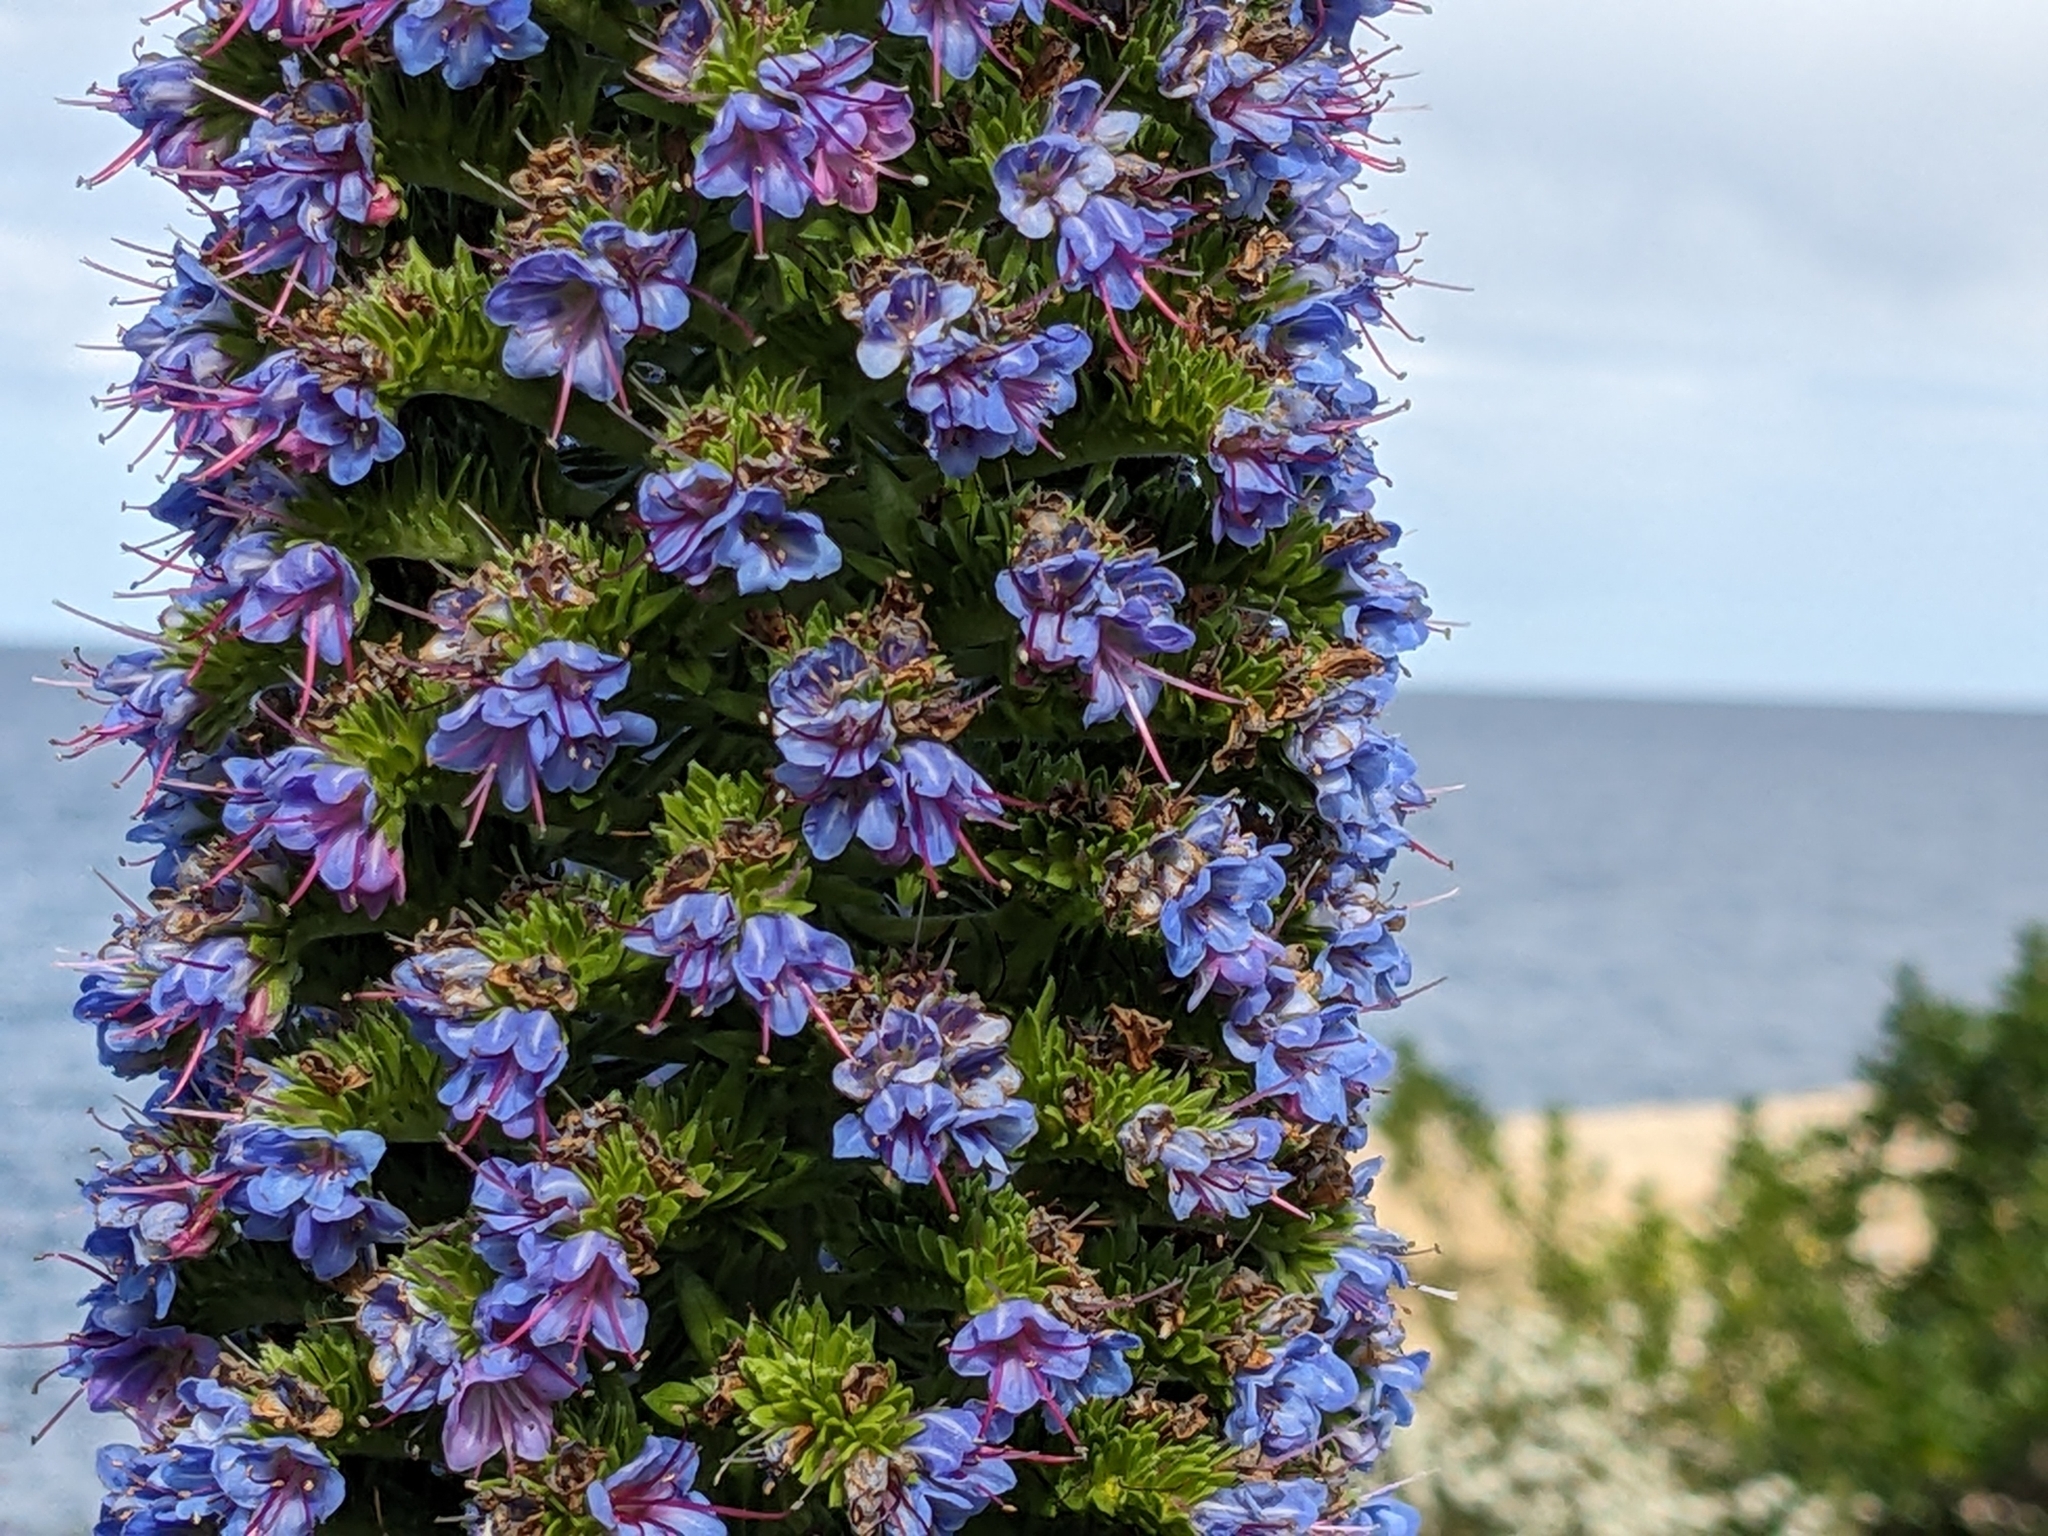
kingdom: Plantae
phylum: Tracheophyta
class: Magnoliopsida
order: Boraginales
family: Boraginaceae
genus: Echium
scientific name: Echium candicans
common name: Pride of madeira
